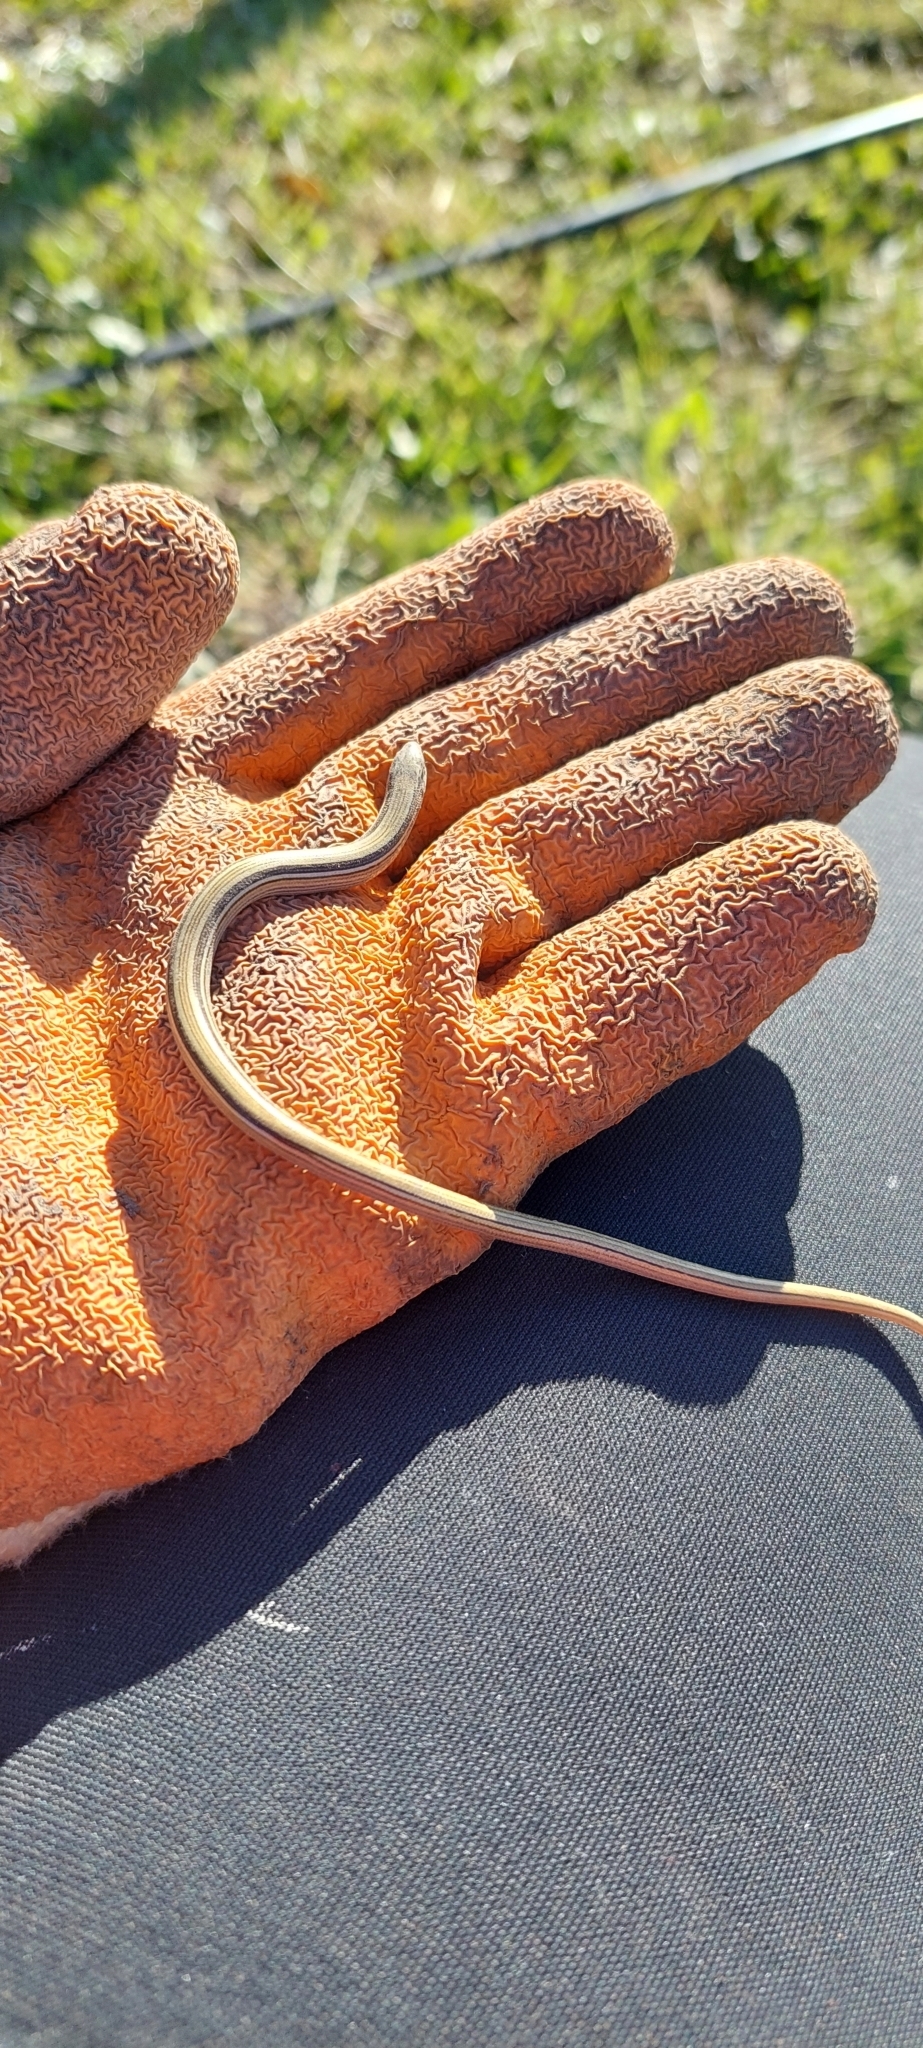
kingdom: Animalia
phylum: Chordata
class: Squamata
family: Diploglossidae
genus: Ophiodes
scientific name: Ophiodes vertebralis
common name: Jointed worm lizard
